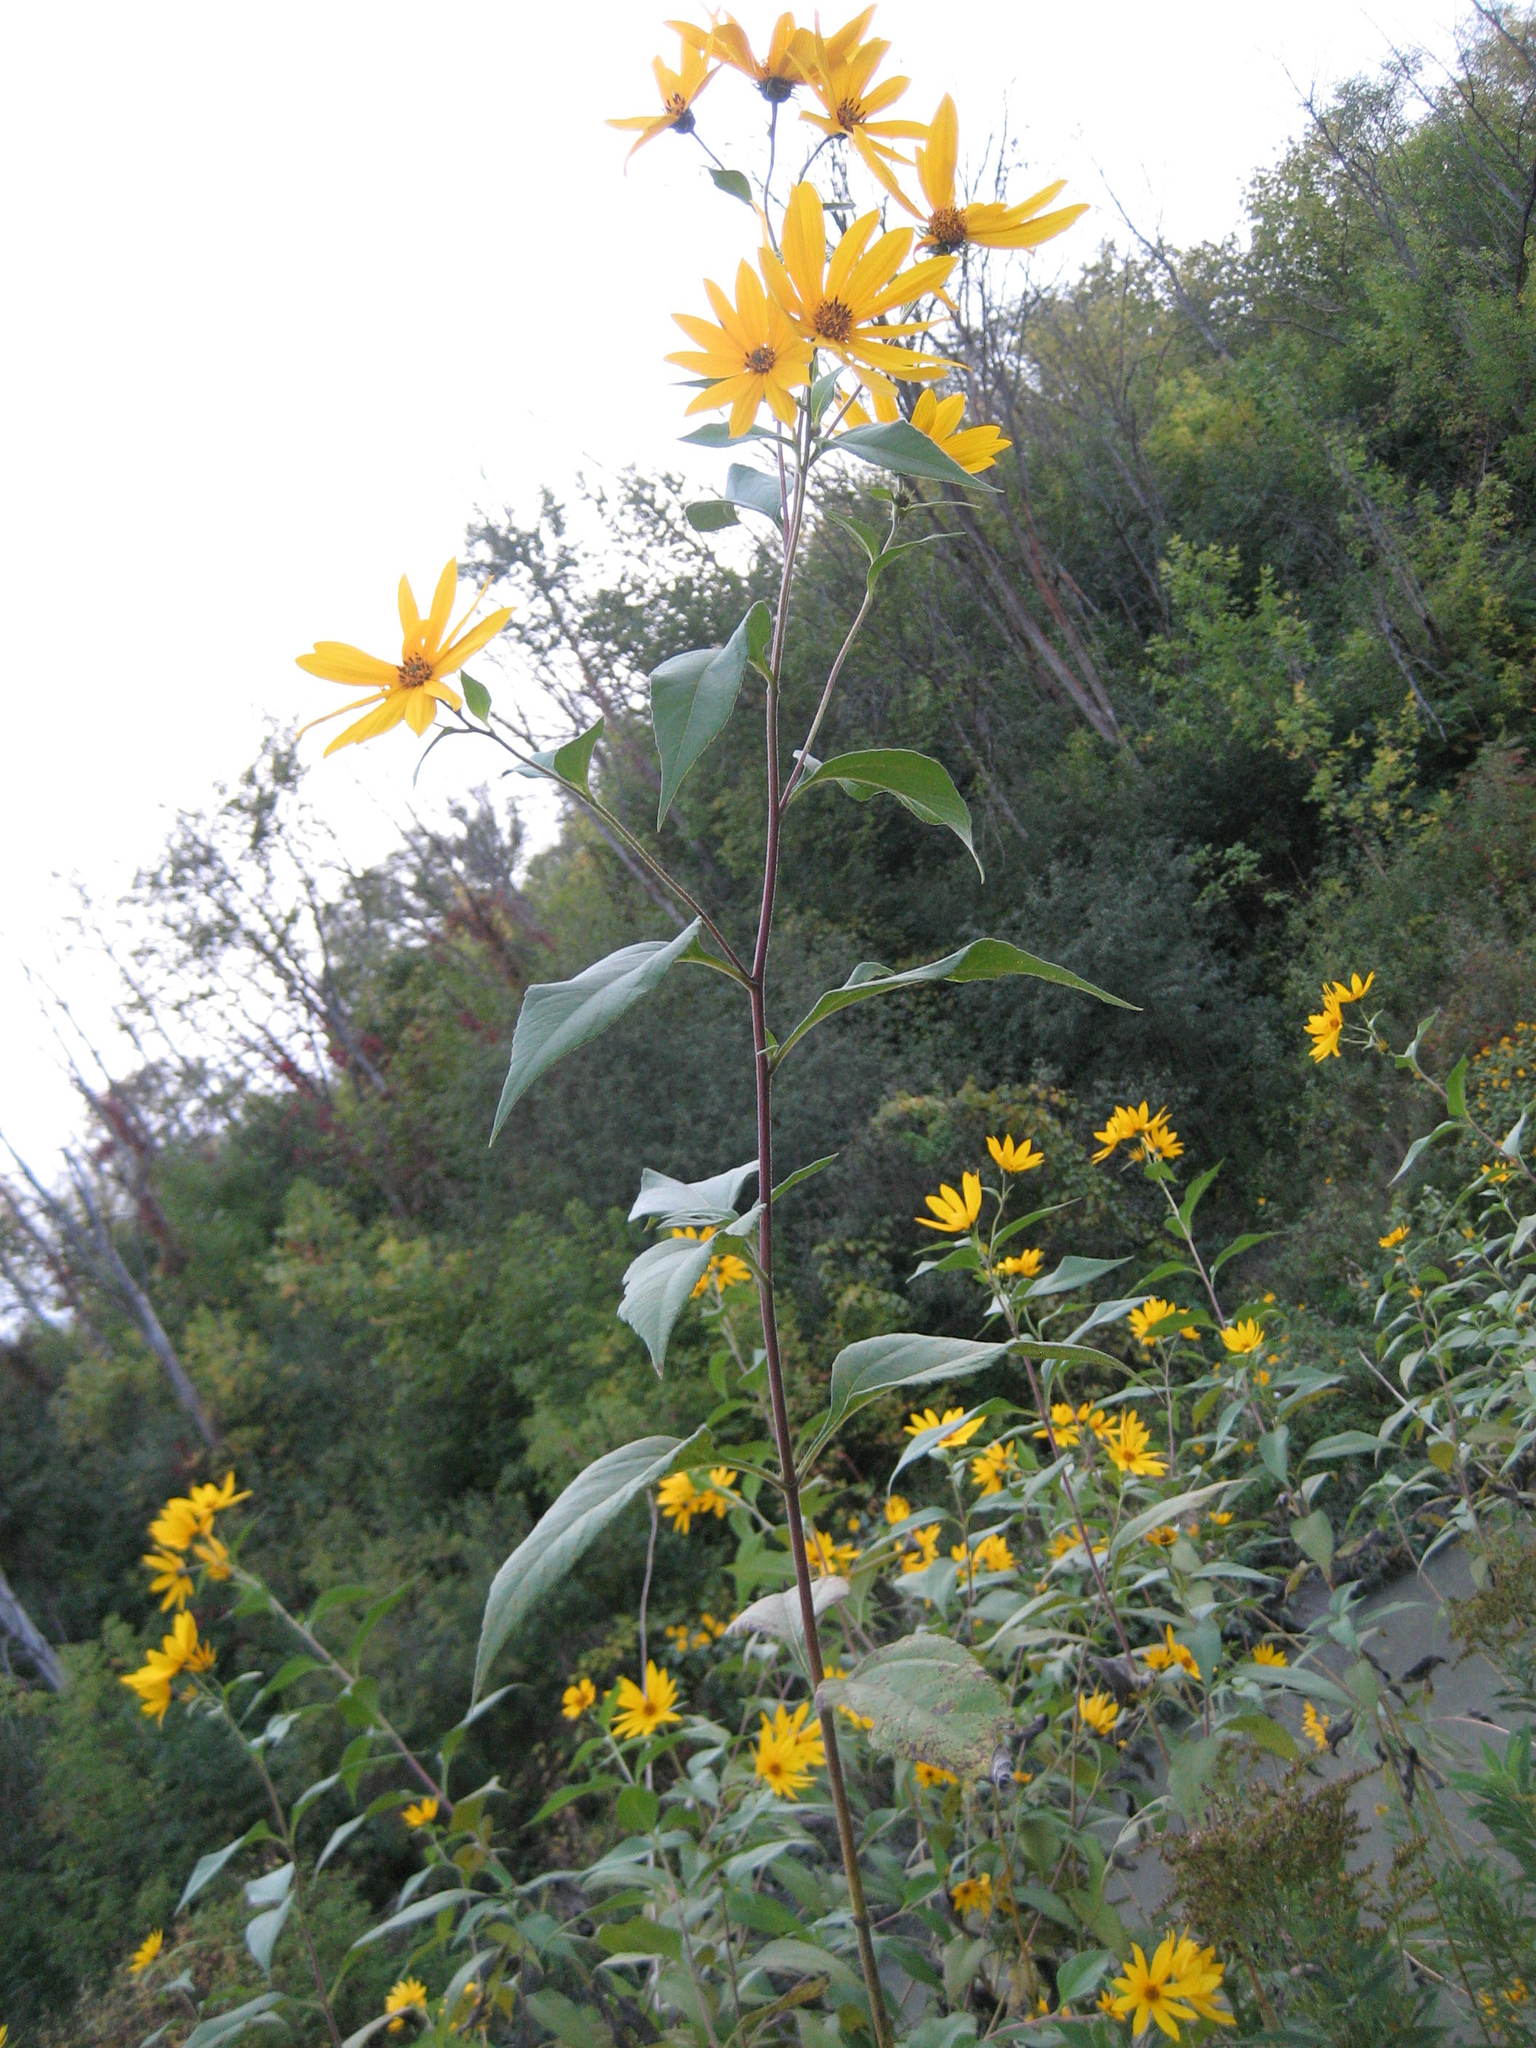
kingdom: Plantae
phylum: Tracheophyta
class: Magnoliopsida
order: Asterales
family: Asteraceae
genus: Helianthus
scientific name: Helianthus tuberosus
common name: Jerusalem artichoke
